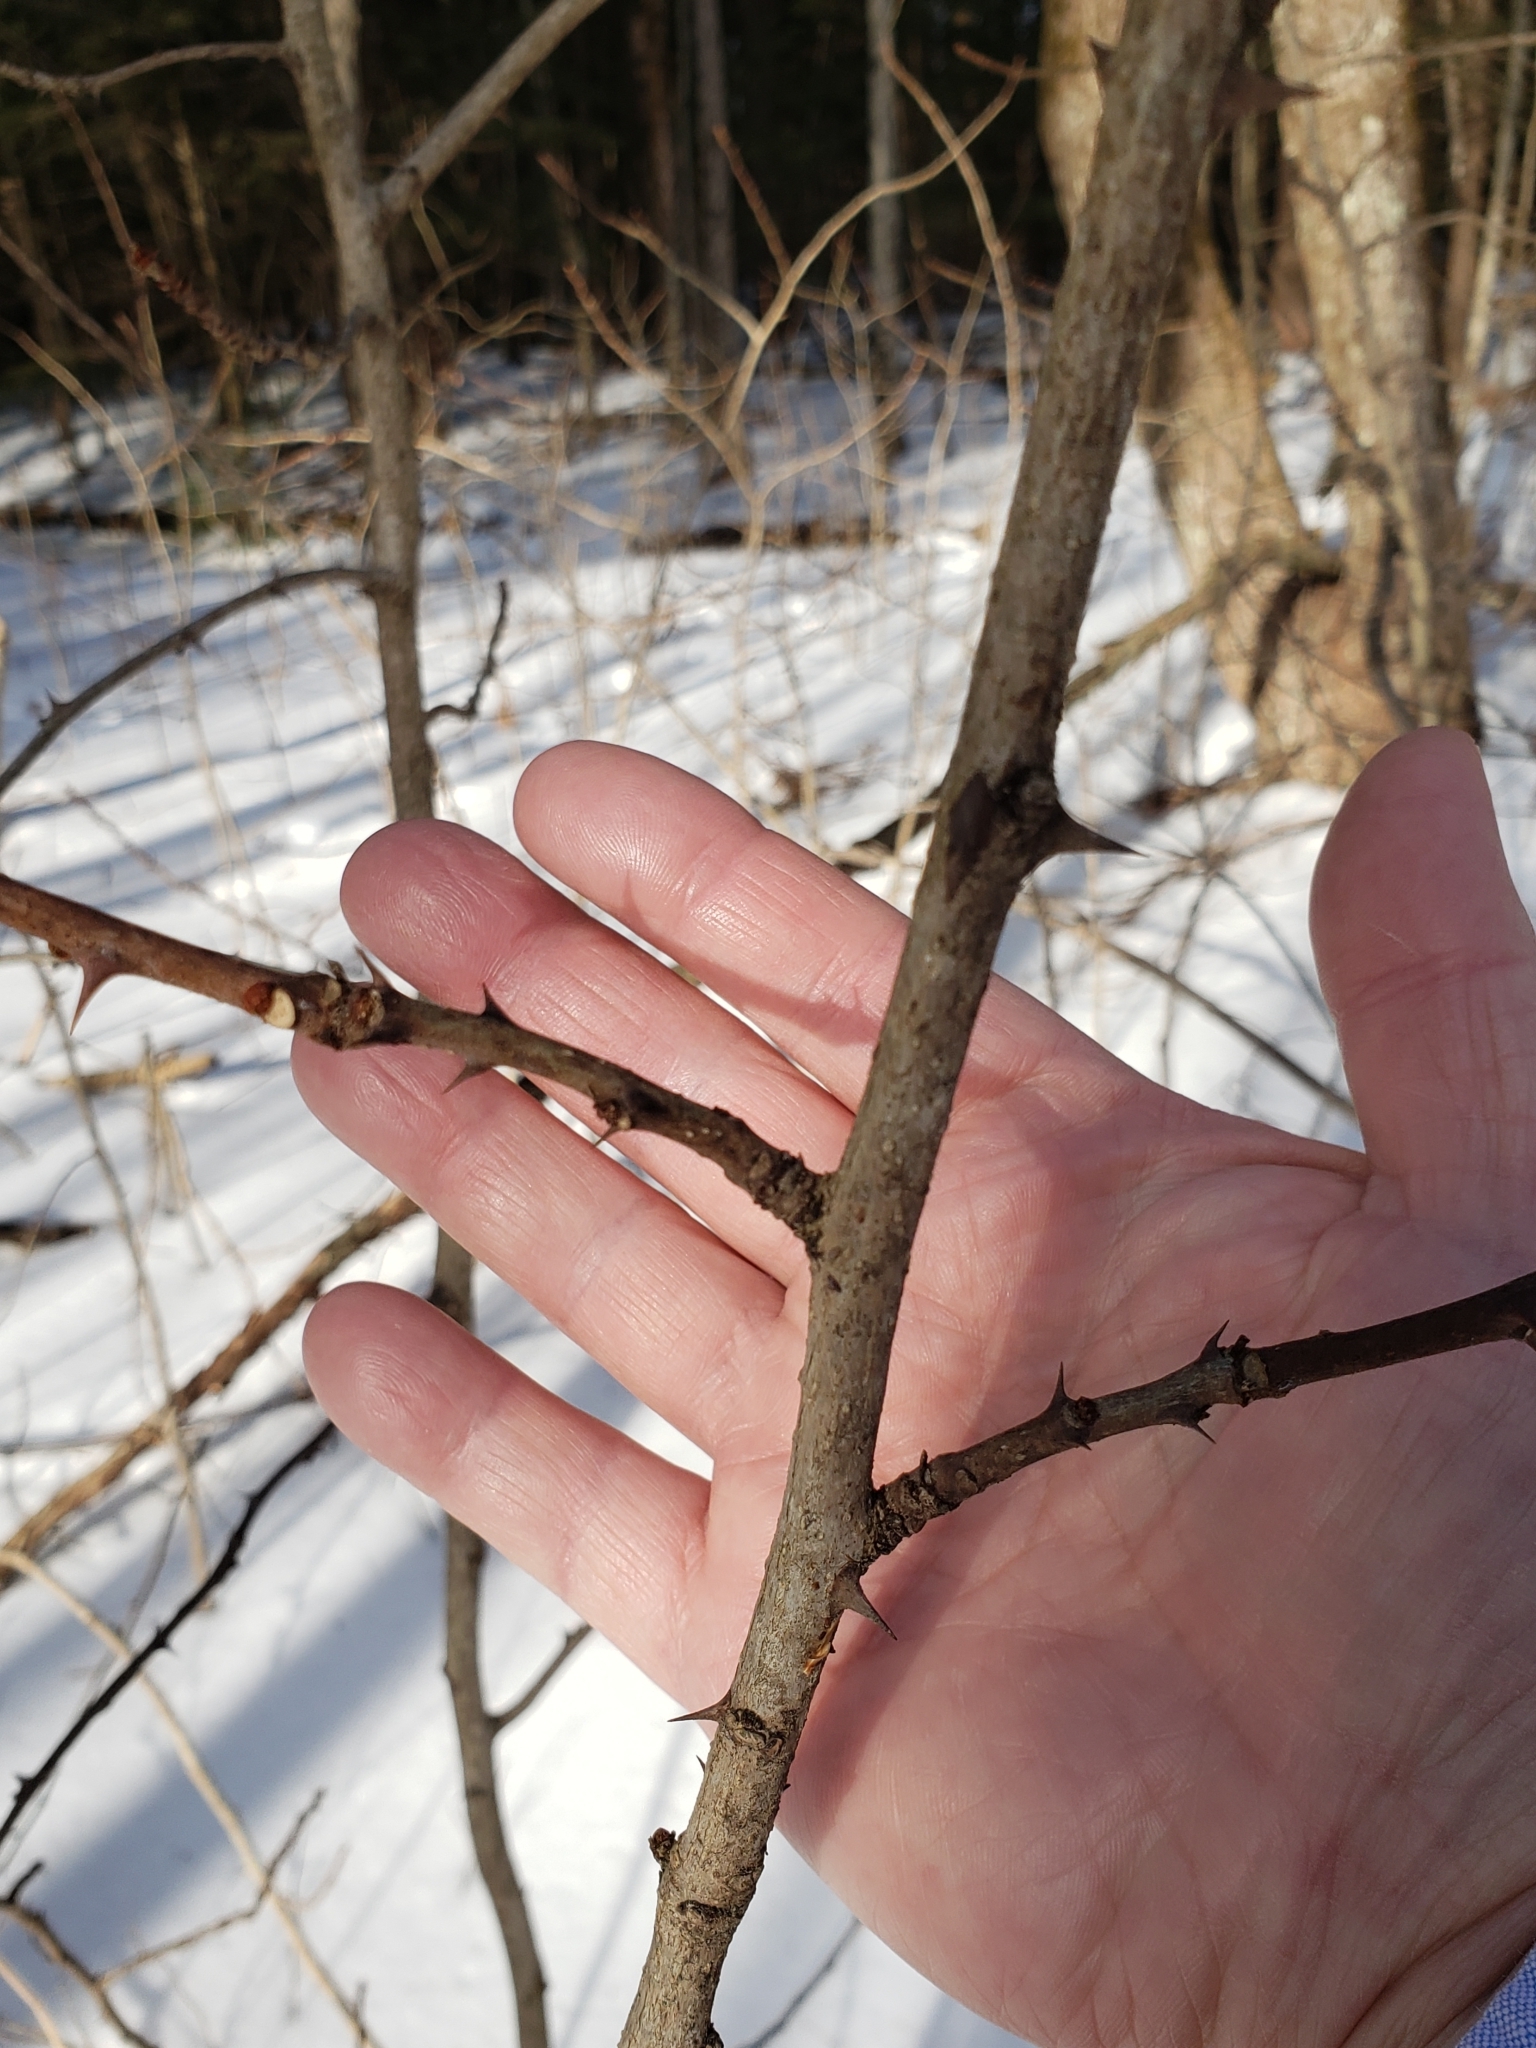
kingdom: Plantae
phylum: Tracheophyta
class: Magnoliopsida
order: Sapindales
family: Rutaceae
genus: Zanthoxylum
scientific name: Zanthoxylum americanum
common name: Northern prickly-ash
